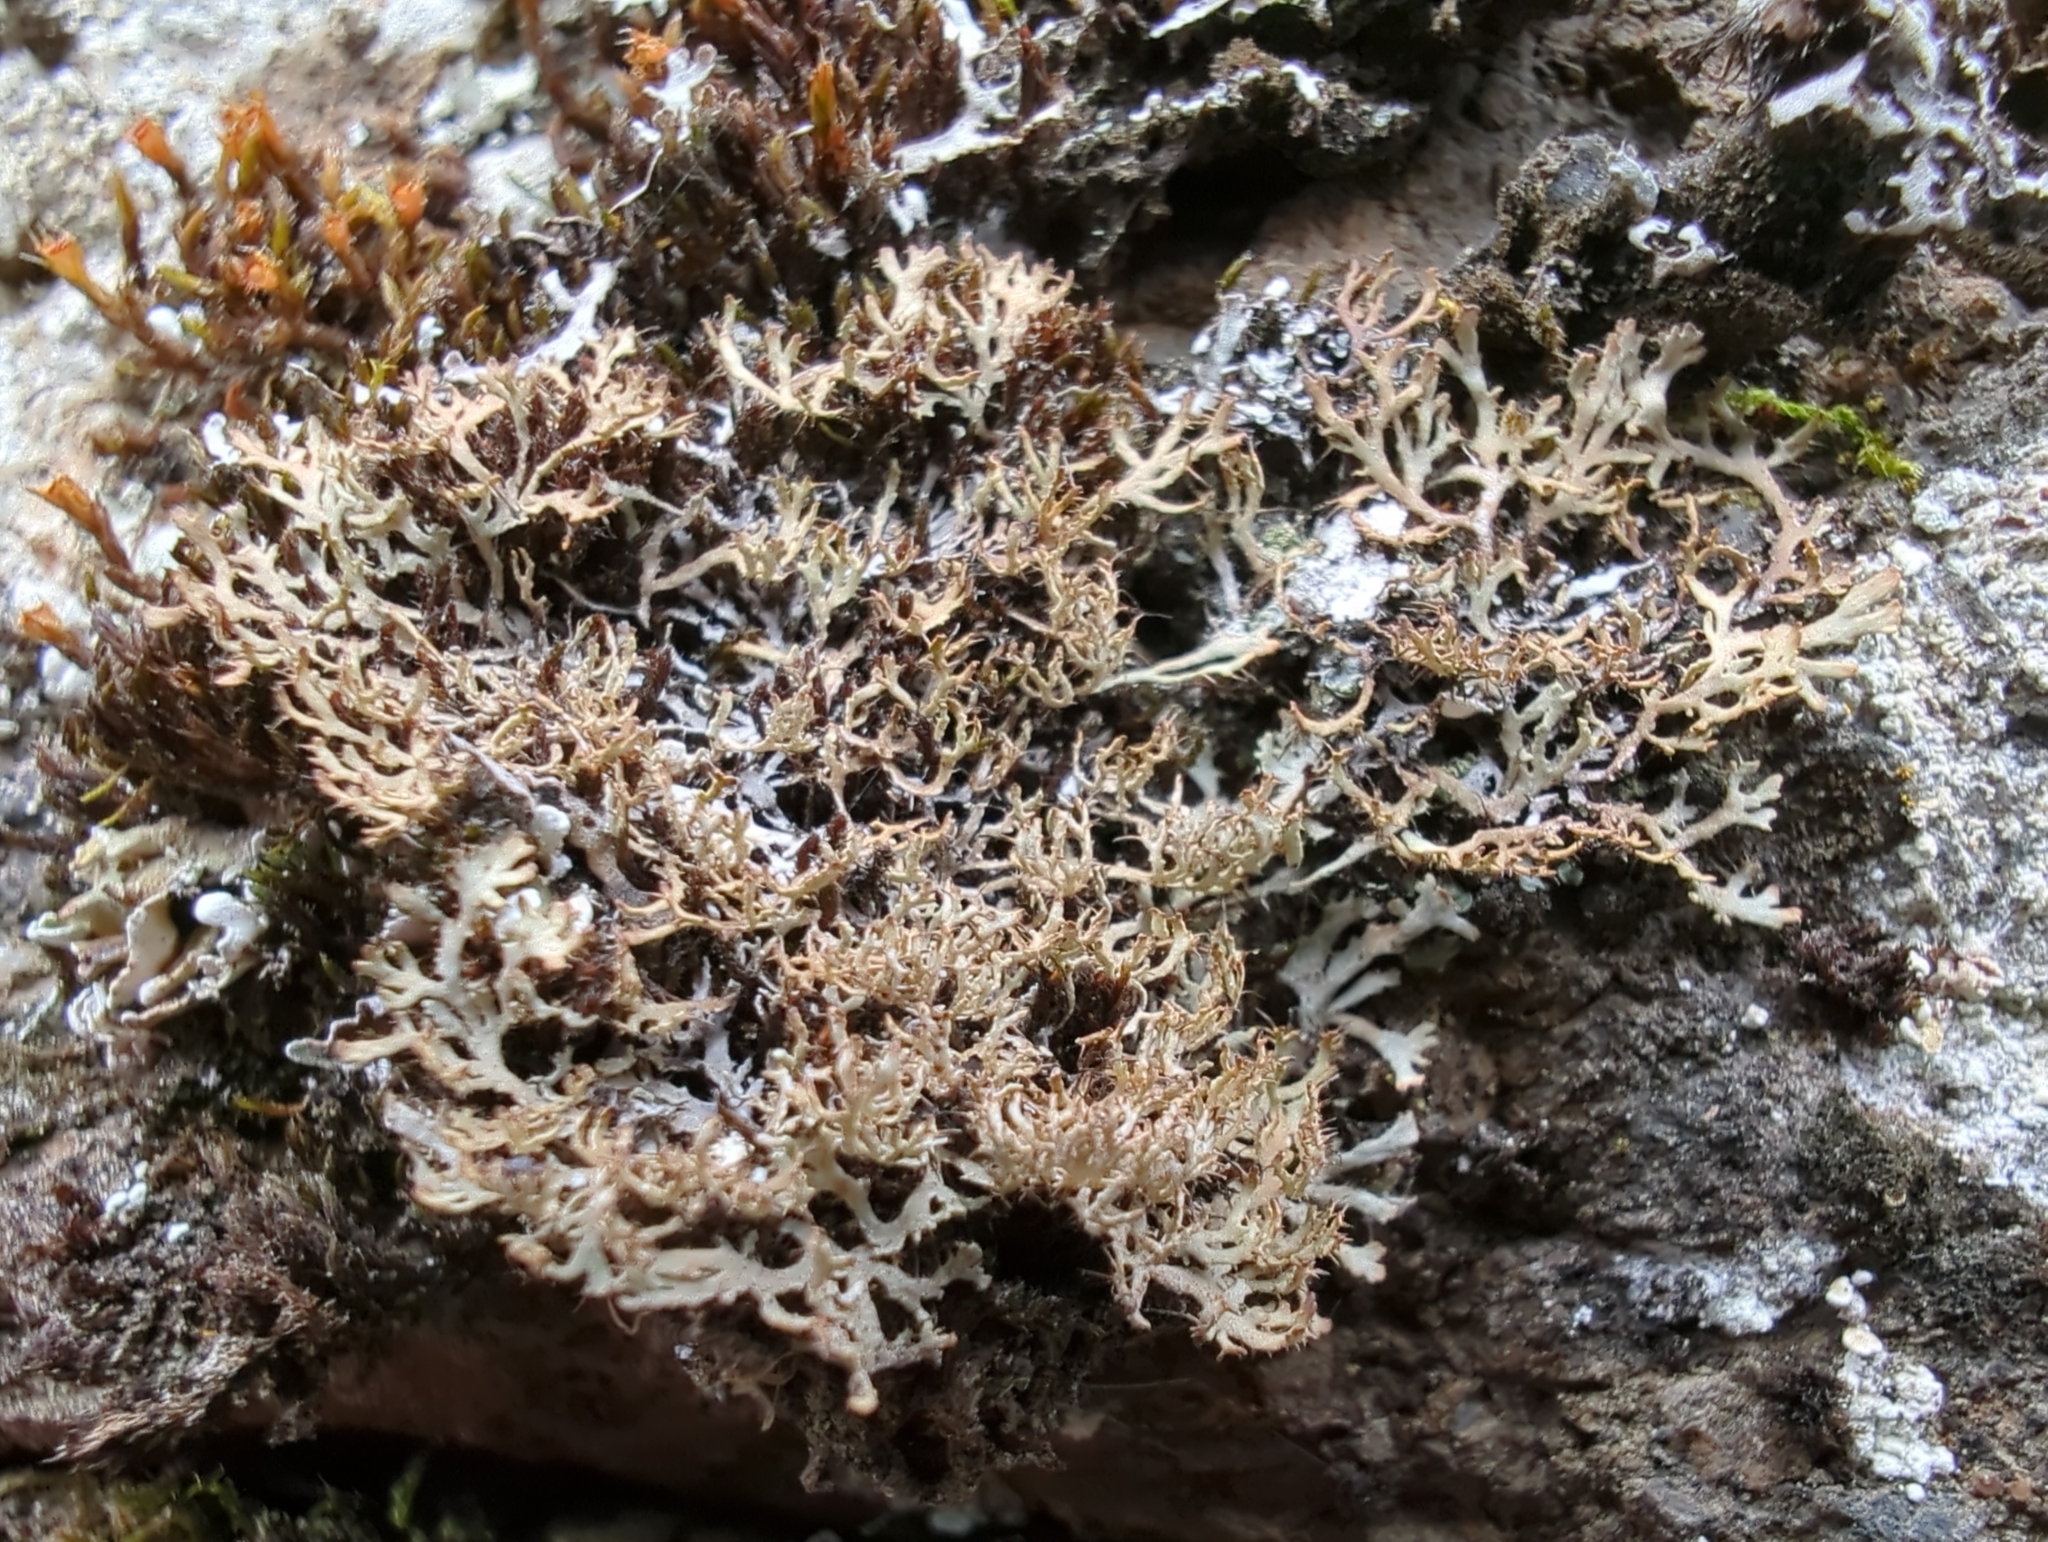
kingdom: Fungi
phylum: Ascomycota
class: Lecanoromycetes
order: Caliciales
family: Physciaceae
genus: Phaeophyscia
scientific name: Phaeophyscia constipata
